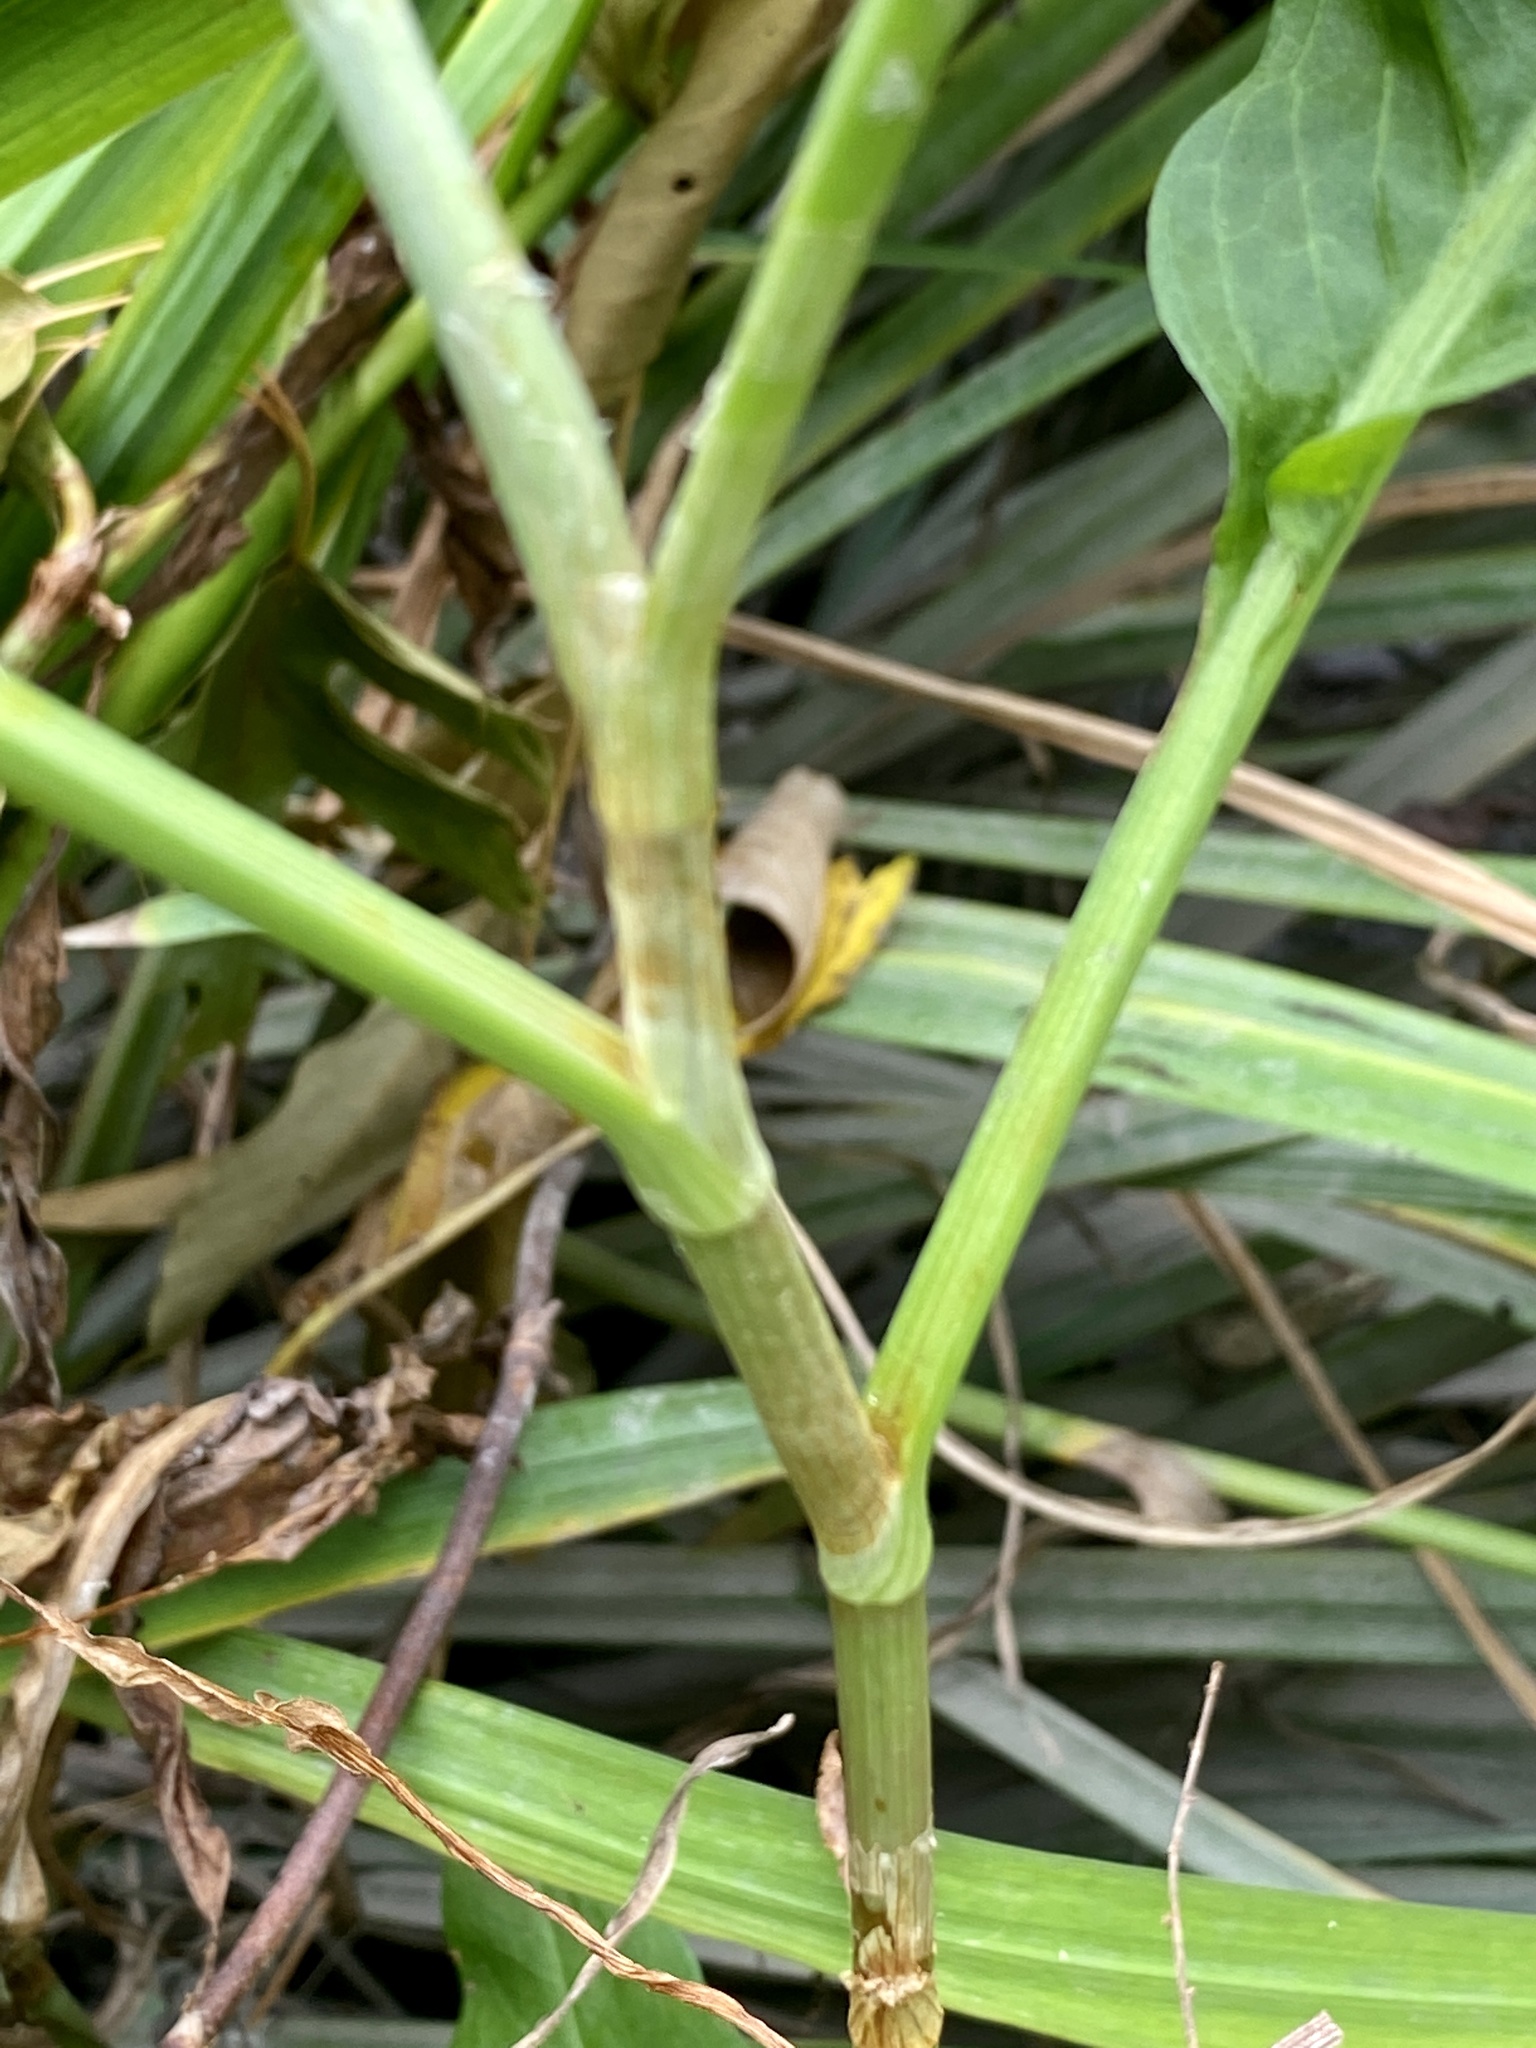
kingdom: Plantae
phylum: Tracheophyta
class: Magnoliopsida
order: Caryophyllales
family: Polygonaceae
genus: Persicaria
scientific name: Persicaria amphibia
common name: Amphibious bistort
